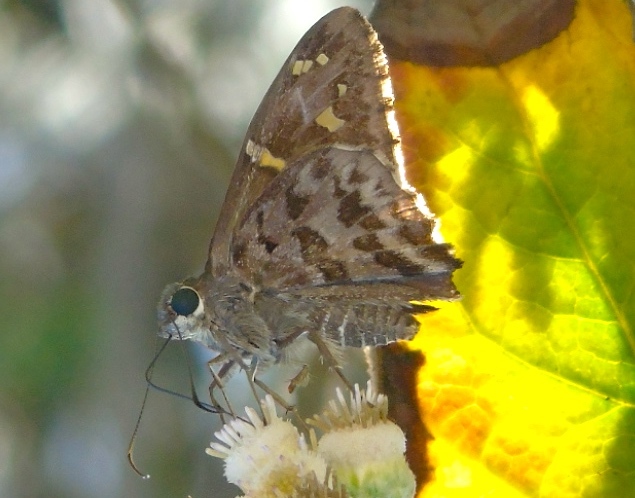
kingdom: Animalia
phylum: Arthropoda
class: Insecta
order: Lepidoptera
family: Hesperiidae
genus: Thorybes
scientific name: Thorybes
